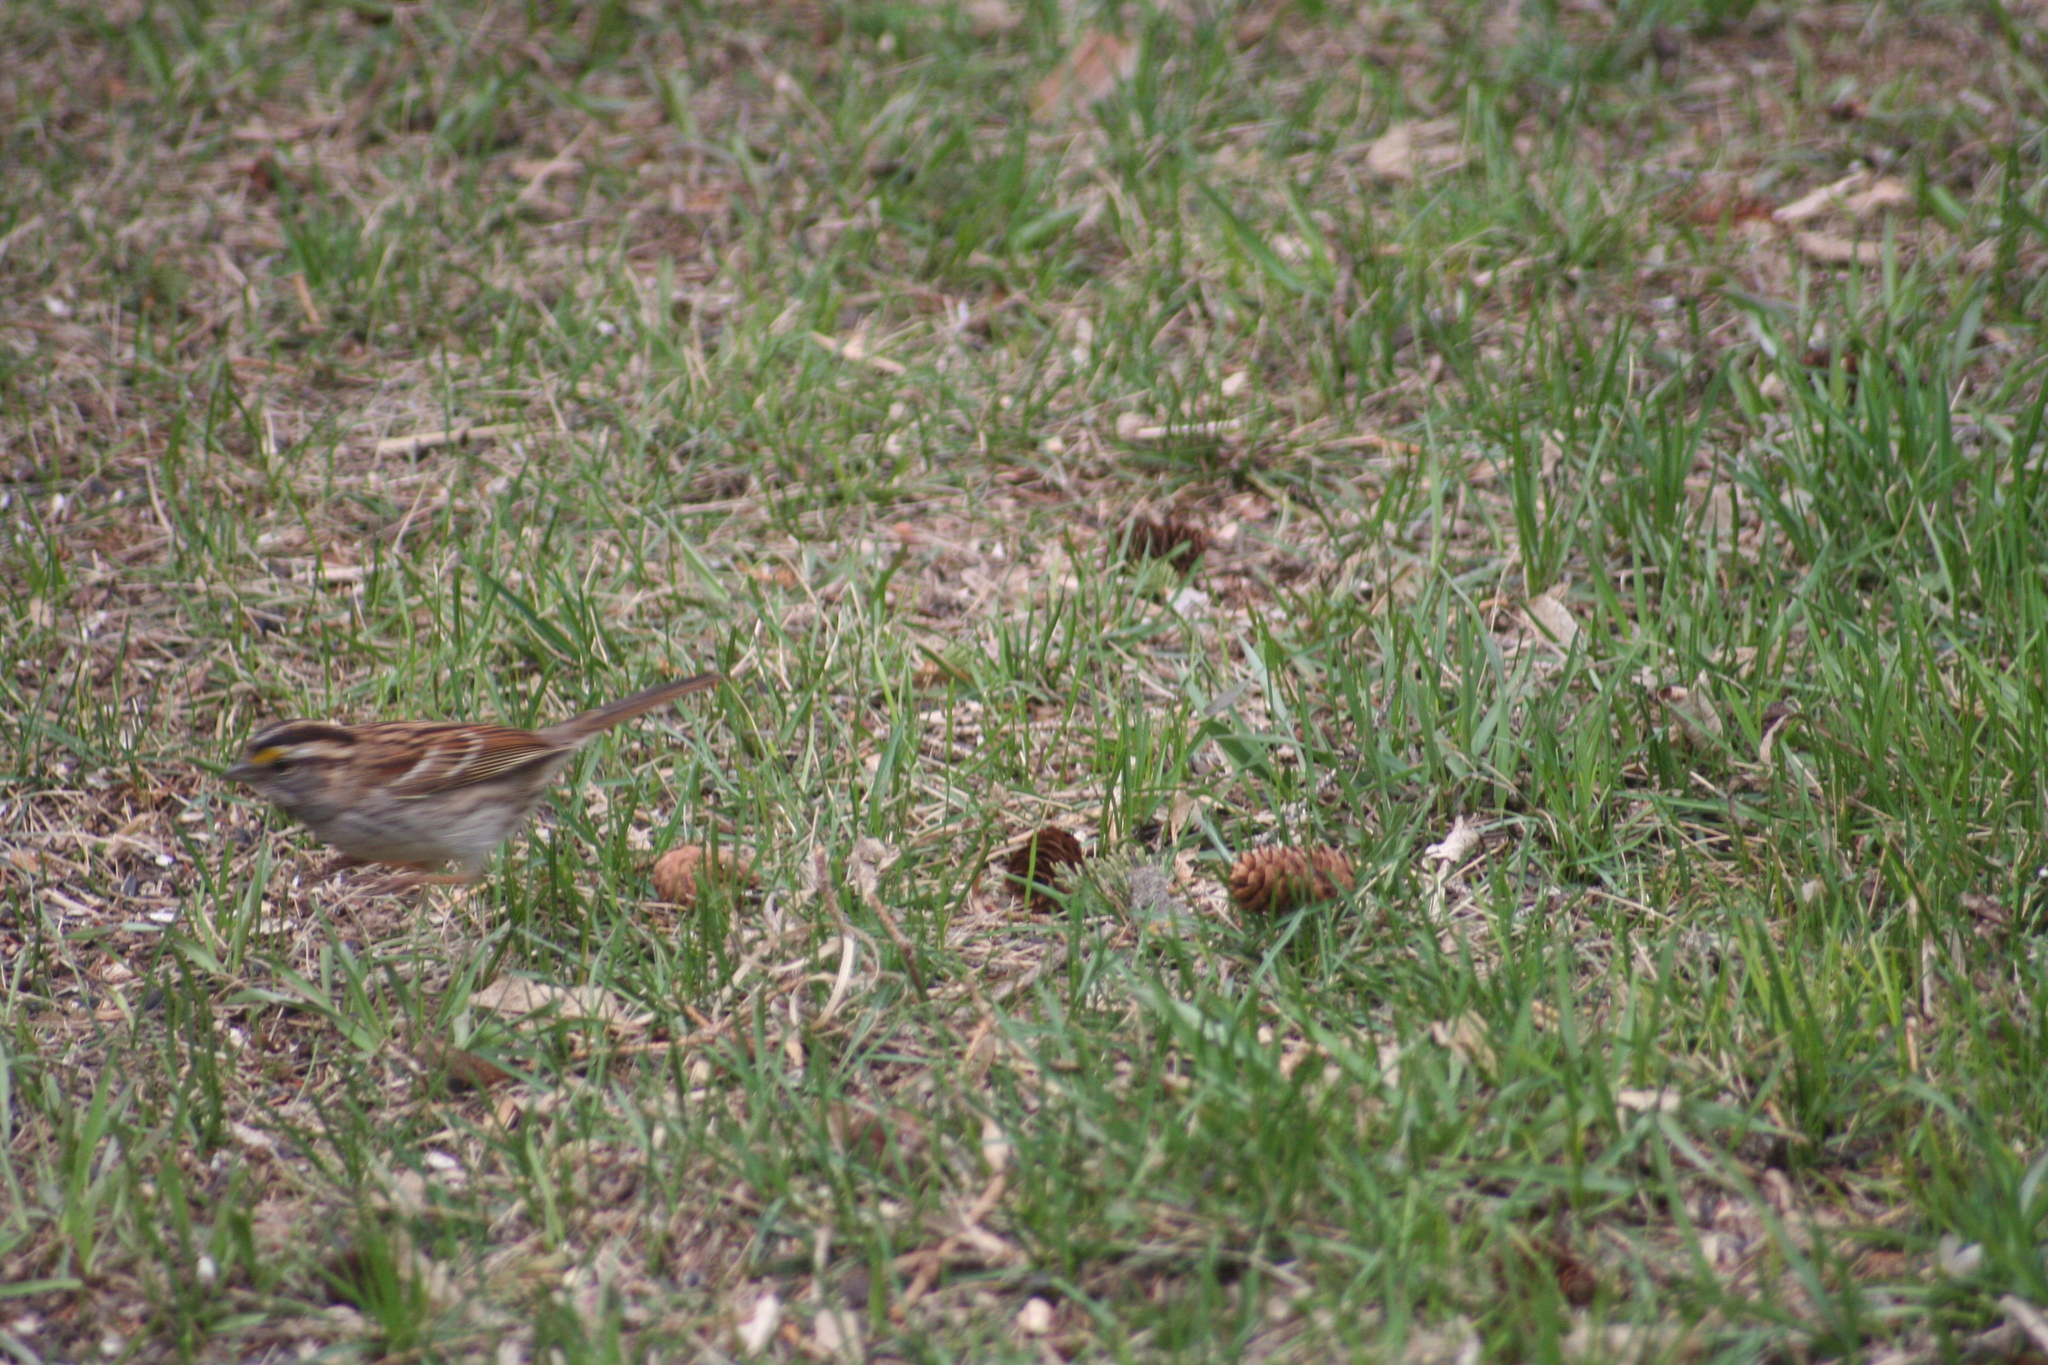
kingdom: Animalia
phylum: Chordata
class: Aves
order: Passeriformes
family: Passerellidae
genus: Zonotrichia
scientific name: Zonotrichia albicollis
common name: White-throated sparrow
